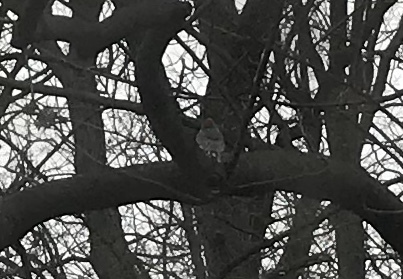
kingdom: Animalia
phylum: Chordata
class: Aves
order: Piciformes
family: Picidae
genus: Melanerpes
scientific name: Melanerpes carolinus
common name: Red-bellied woodpecker
